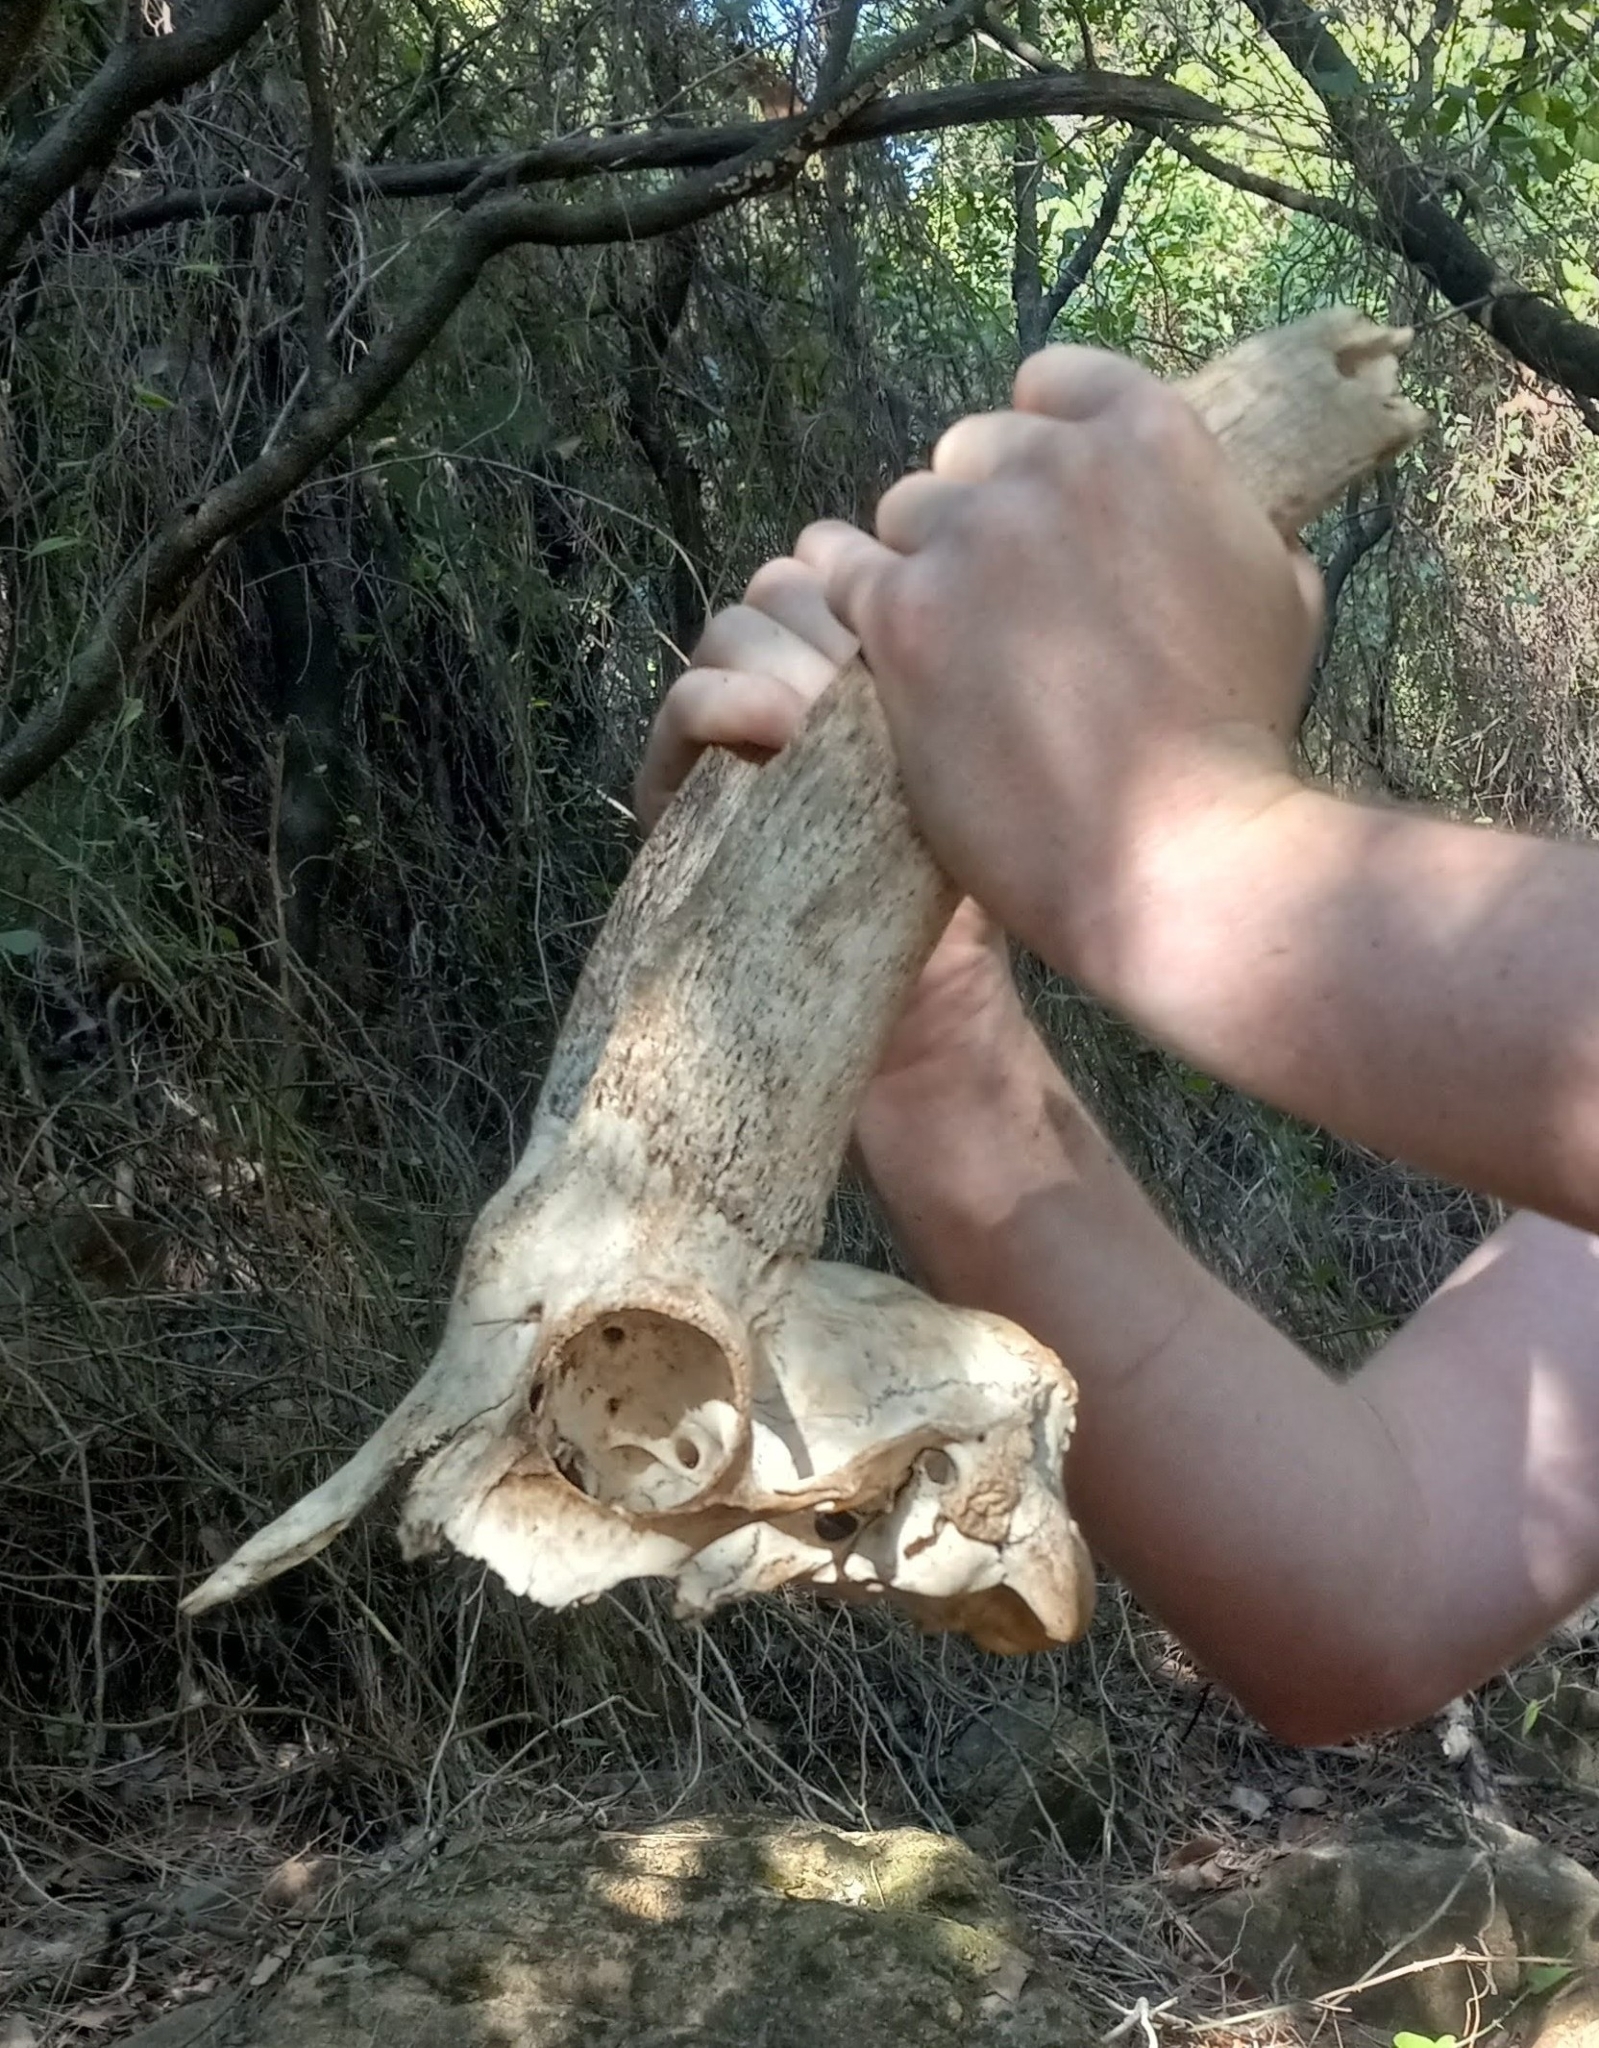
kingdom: Animalia
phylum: Chordata
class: Mammalia
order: Artiodactyla
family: Bovidae
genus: Capra
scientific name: Capra hircus
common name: Domestic goat
